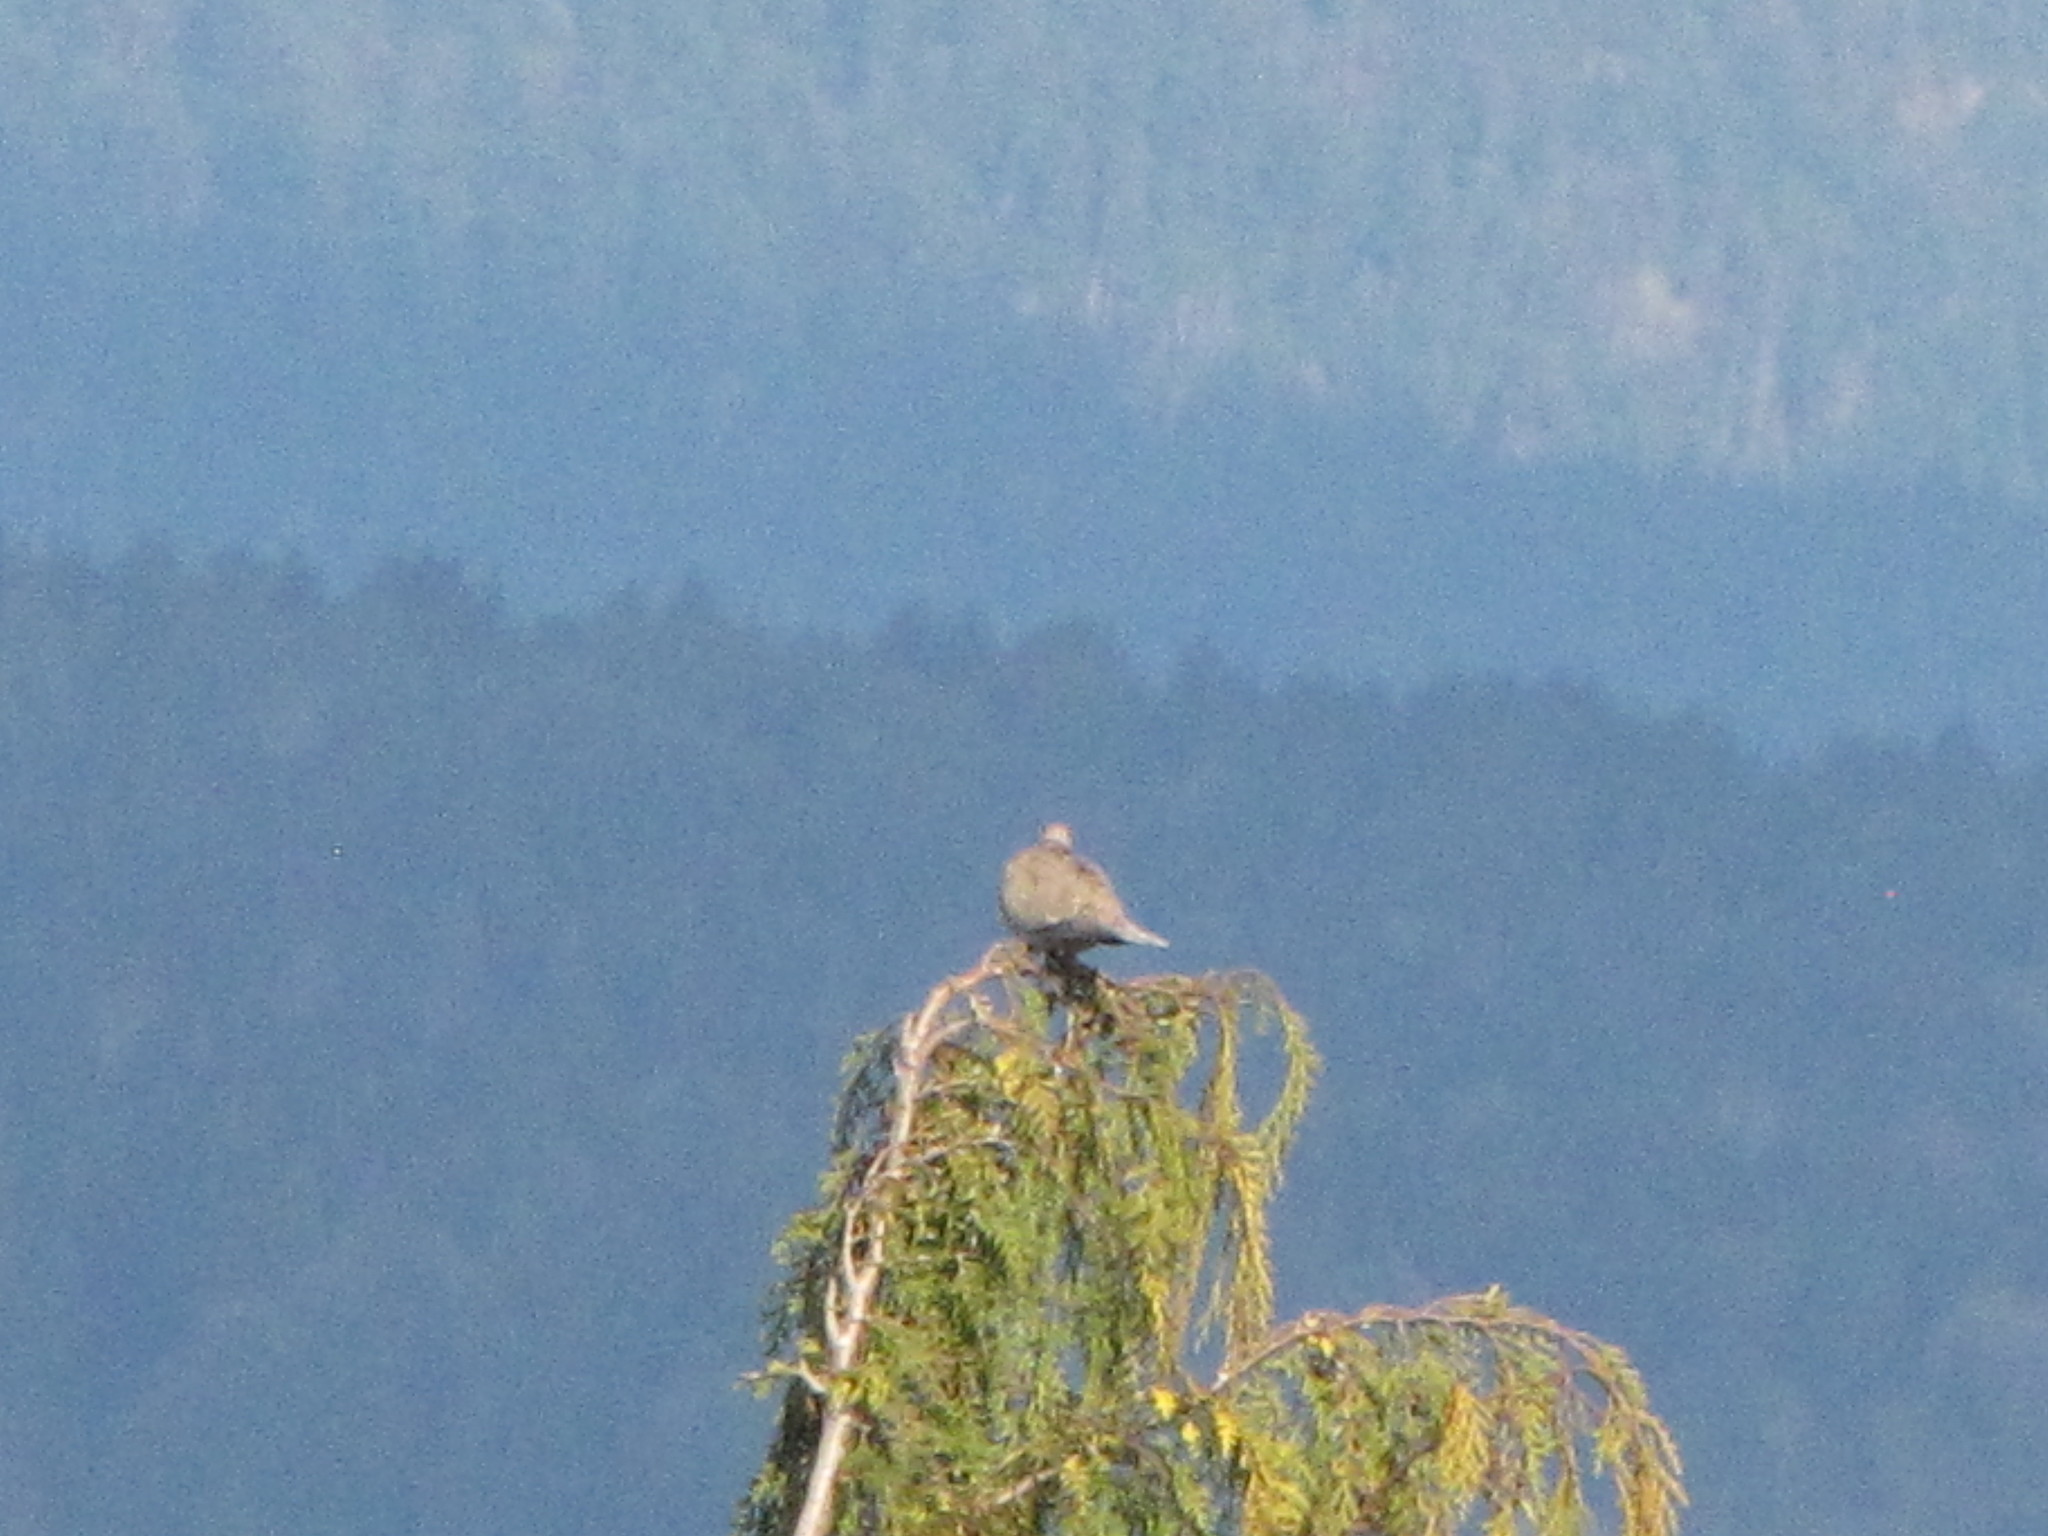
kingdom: Animalia
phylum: Chordata
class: Aves
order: Columbiformes
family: Columbidae
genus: Streptopelia
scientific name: Streptopelia decaocto
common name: Eurasian collared dove
